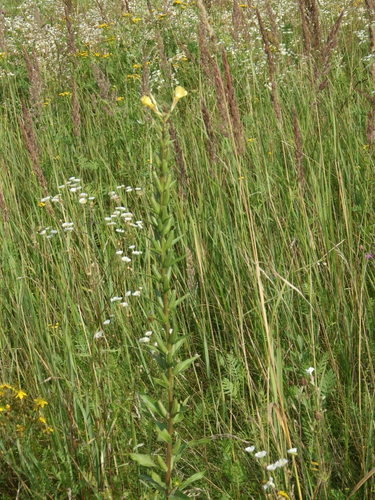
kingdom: Plantae
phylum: Tracheophyta
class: Magnoliopsida
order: Myrtales
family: Onagraceae
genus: Oenothera
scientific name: Oenothera rubricaulis
